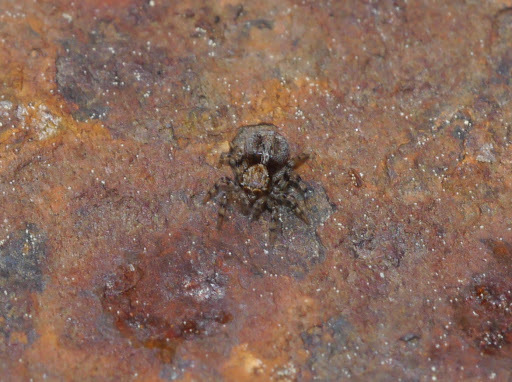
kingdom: Animalia
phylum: Arthropoda
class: Arachnida
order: Araneae
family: Salticidae
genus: Naphrys
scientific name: Naphrys pulex
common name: Flea jumping spider
